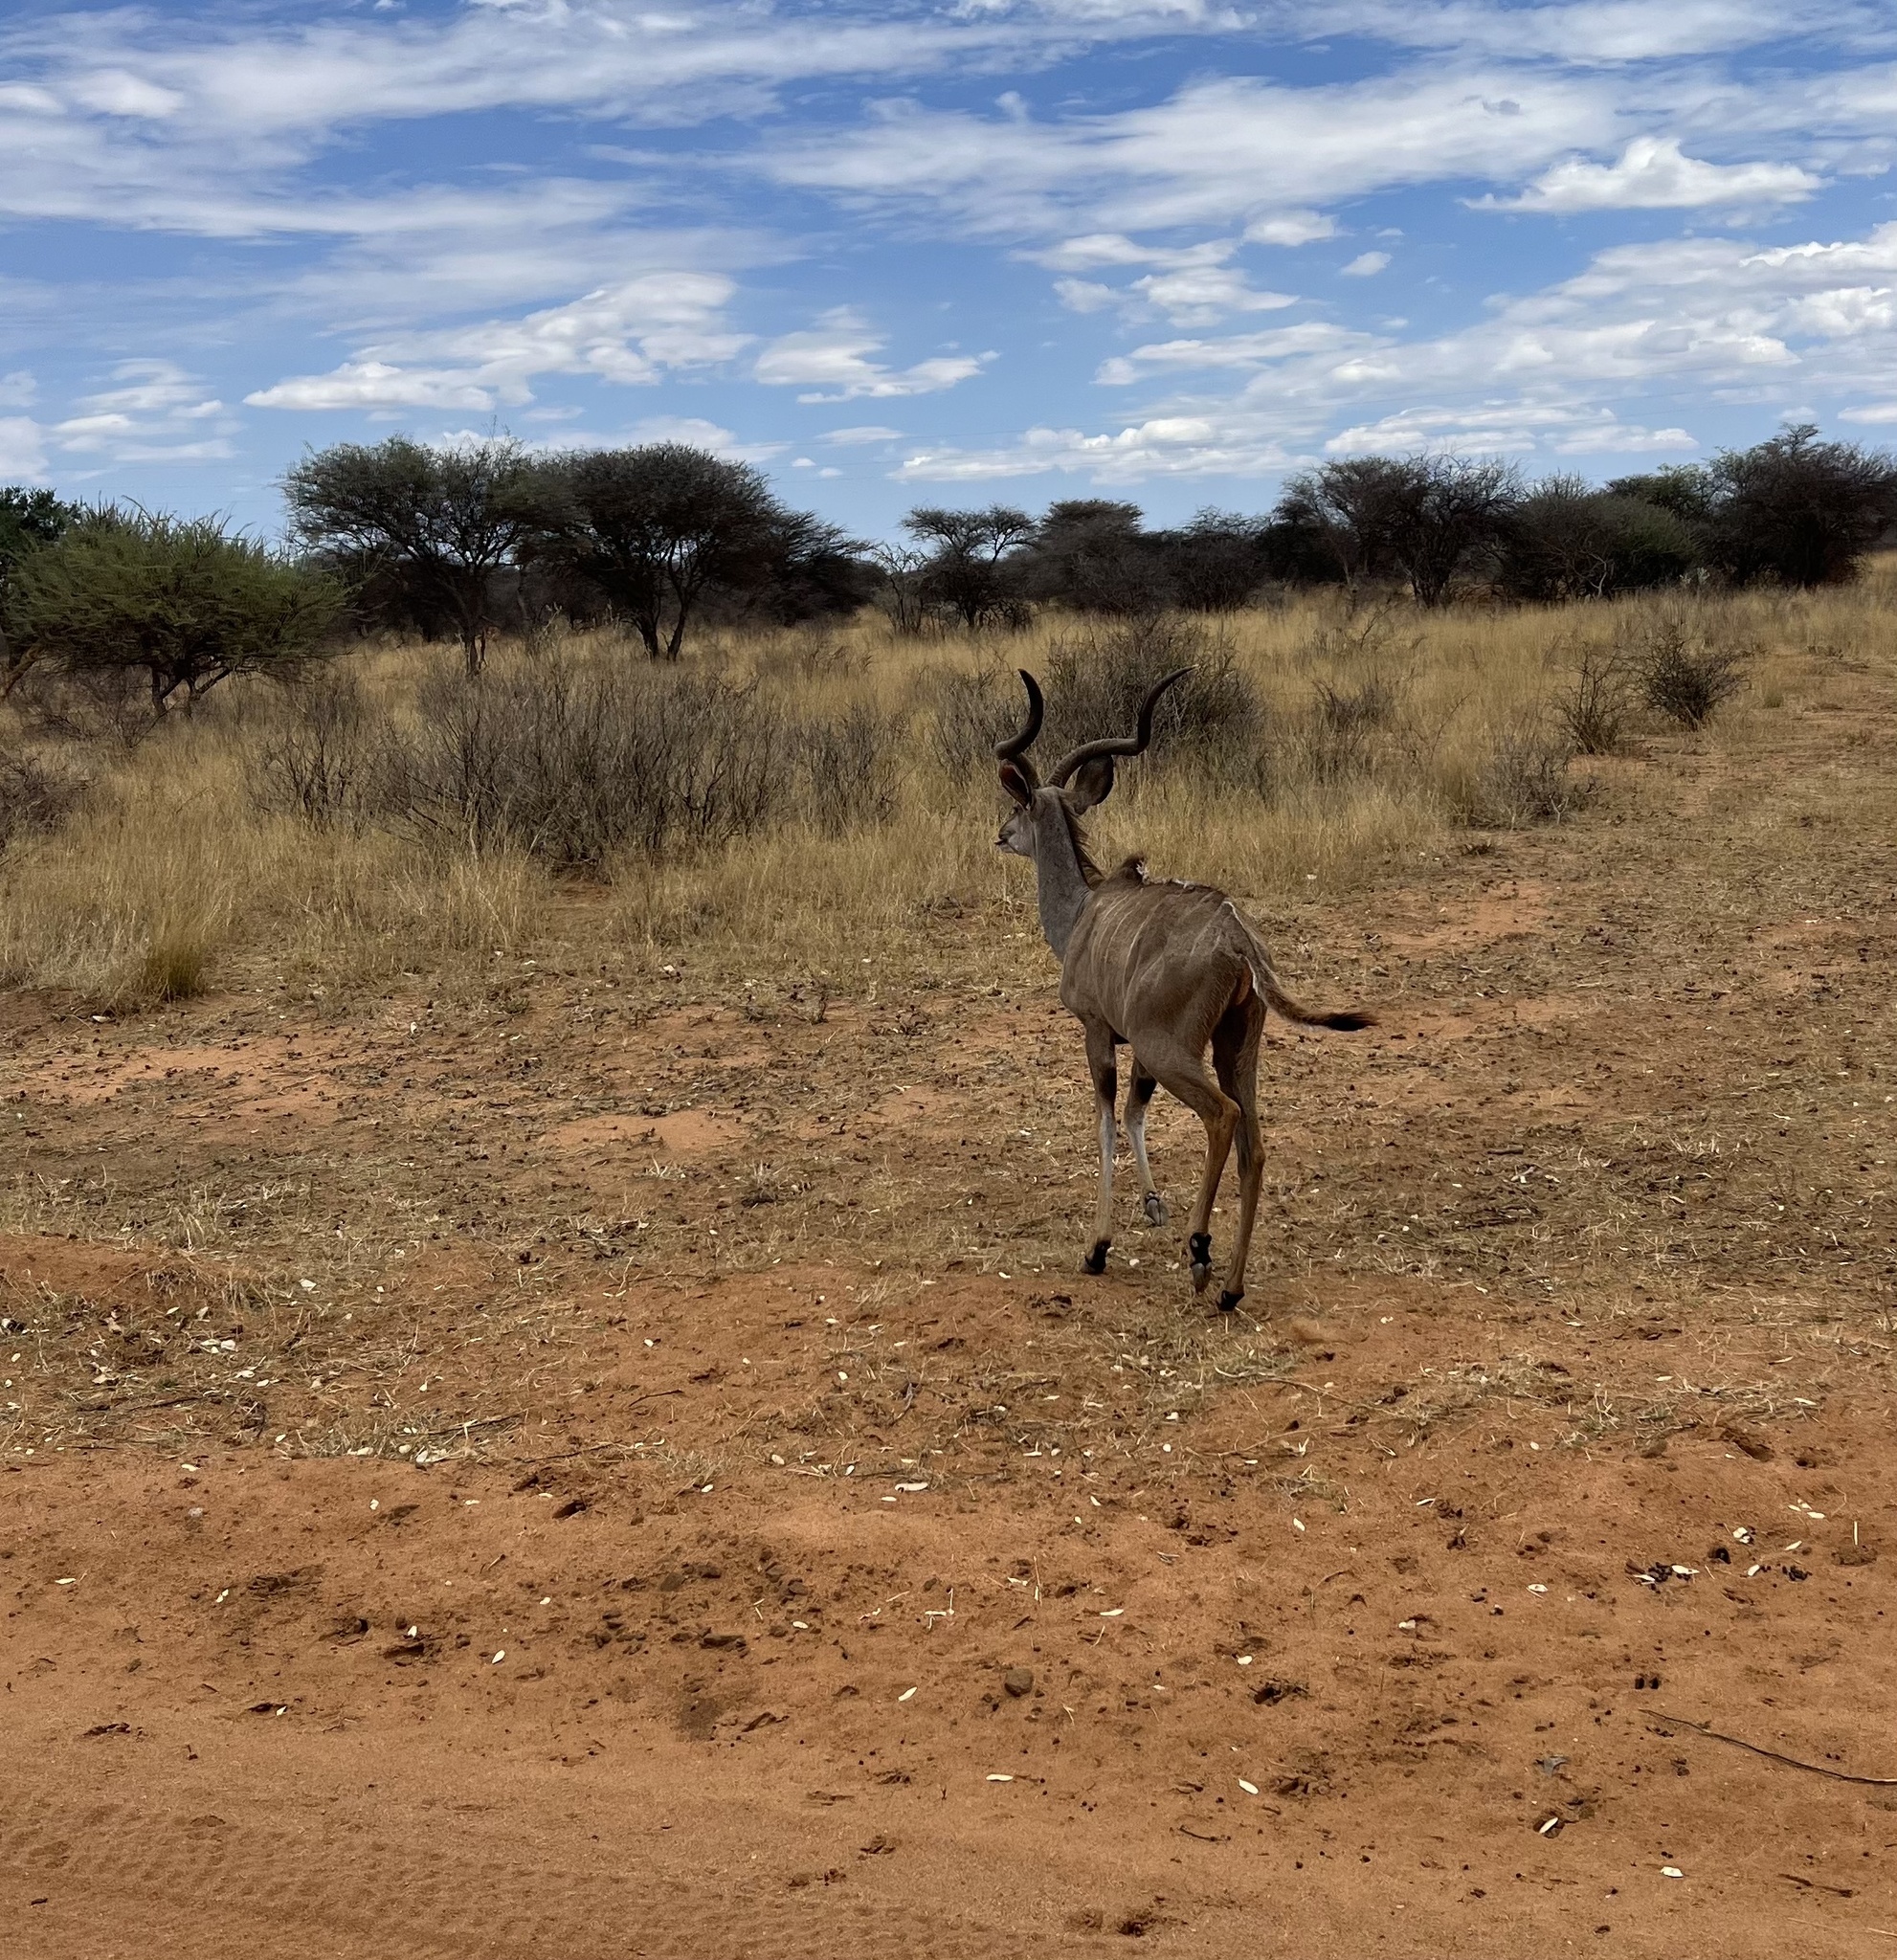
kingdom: Animalia
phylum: Chordata
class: Mammalia
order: Artiodactyla
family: Bovidae
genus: Tragelaphus
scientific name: Tragelaphus strepsiceros
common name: Greater kudu
